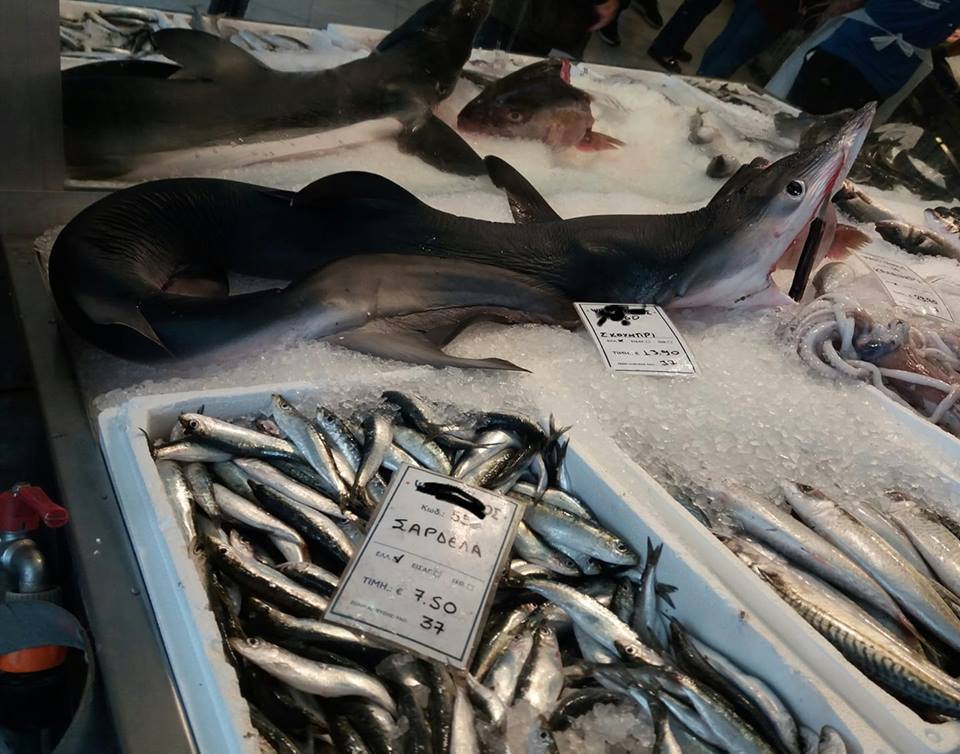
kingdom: Animalia
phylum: Chordata
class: Elasmobranchii
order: Carcharhiniformes
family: Carcharhinidae
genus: Prionace
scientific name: Prionace glauca
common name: Blue shark
